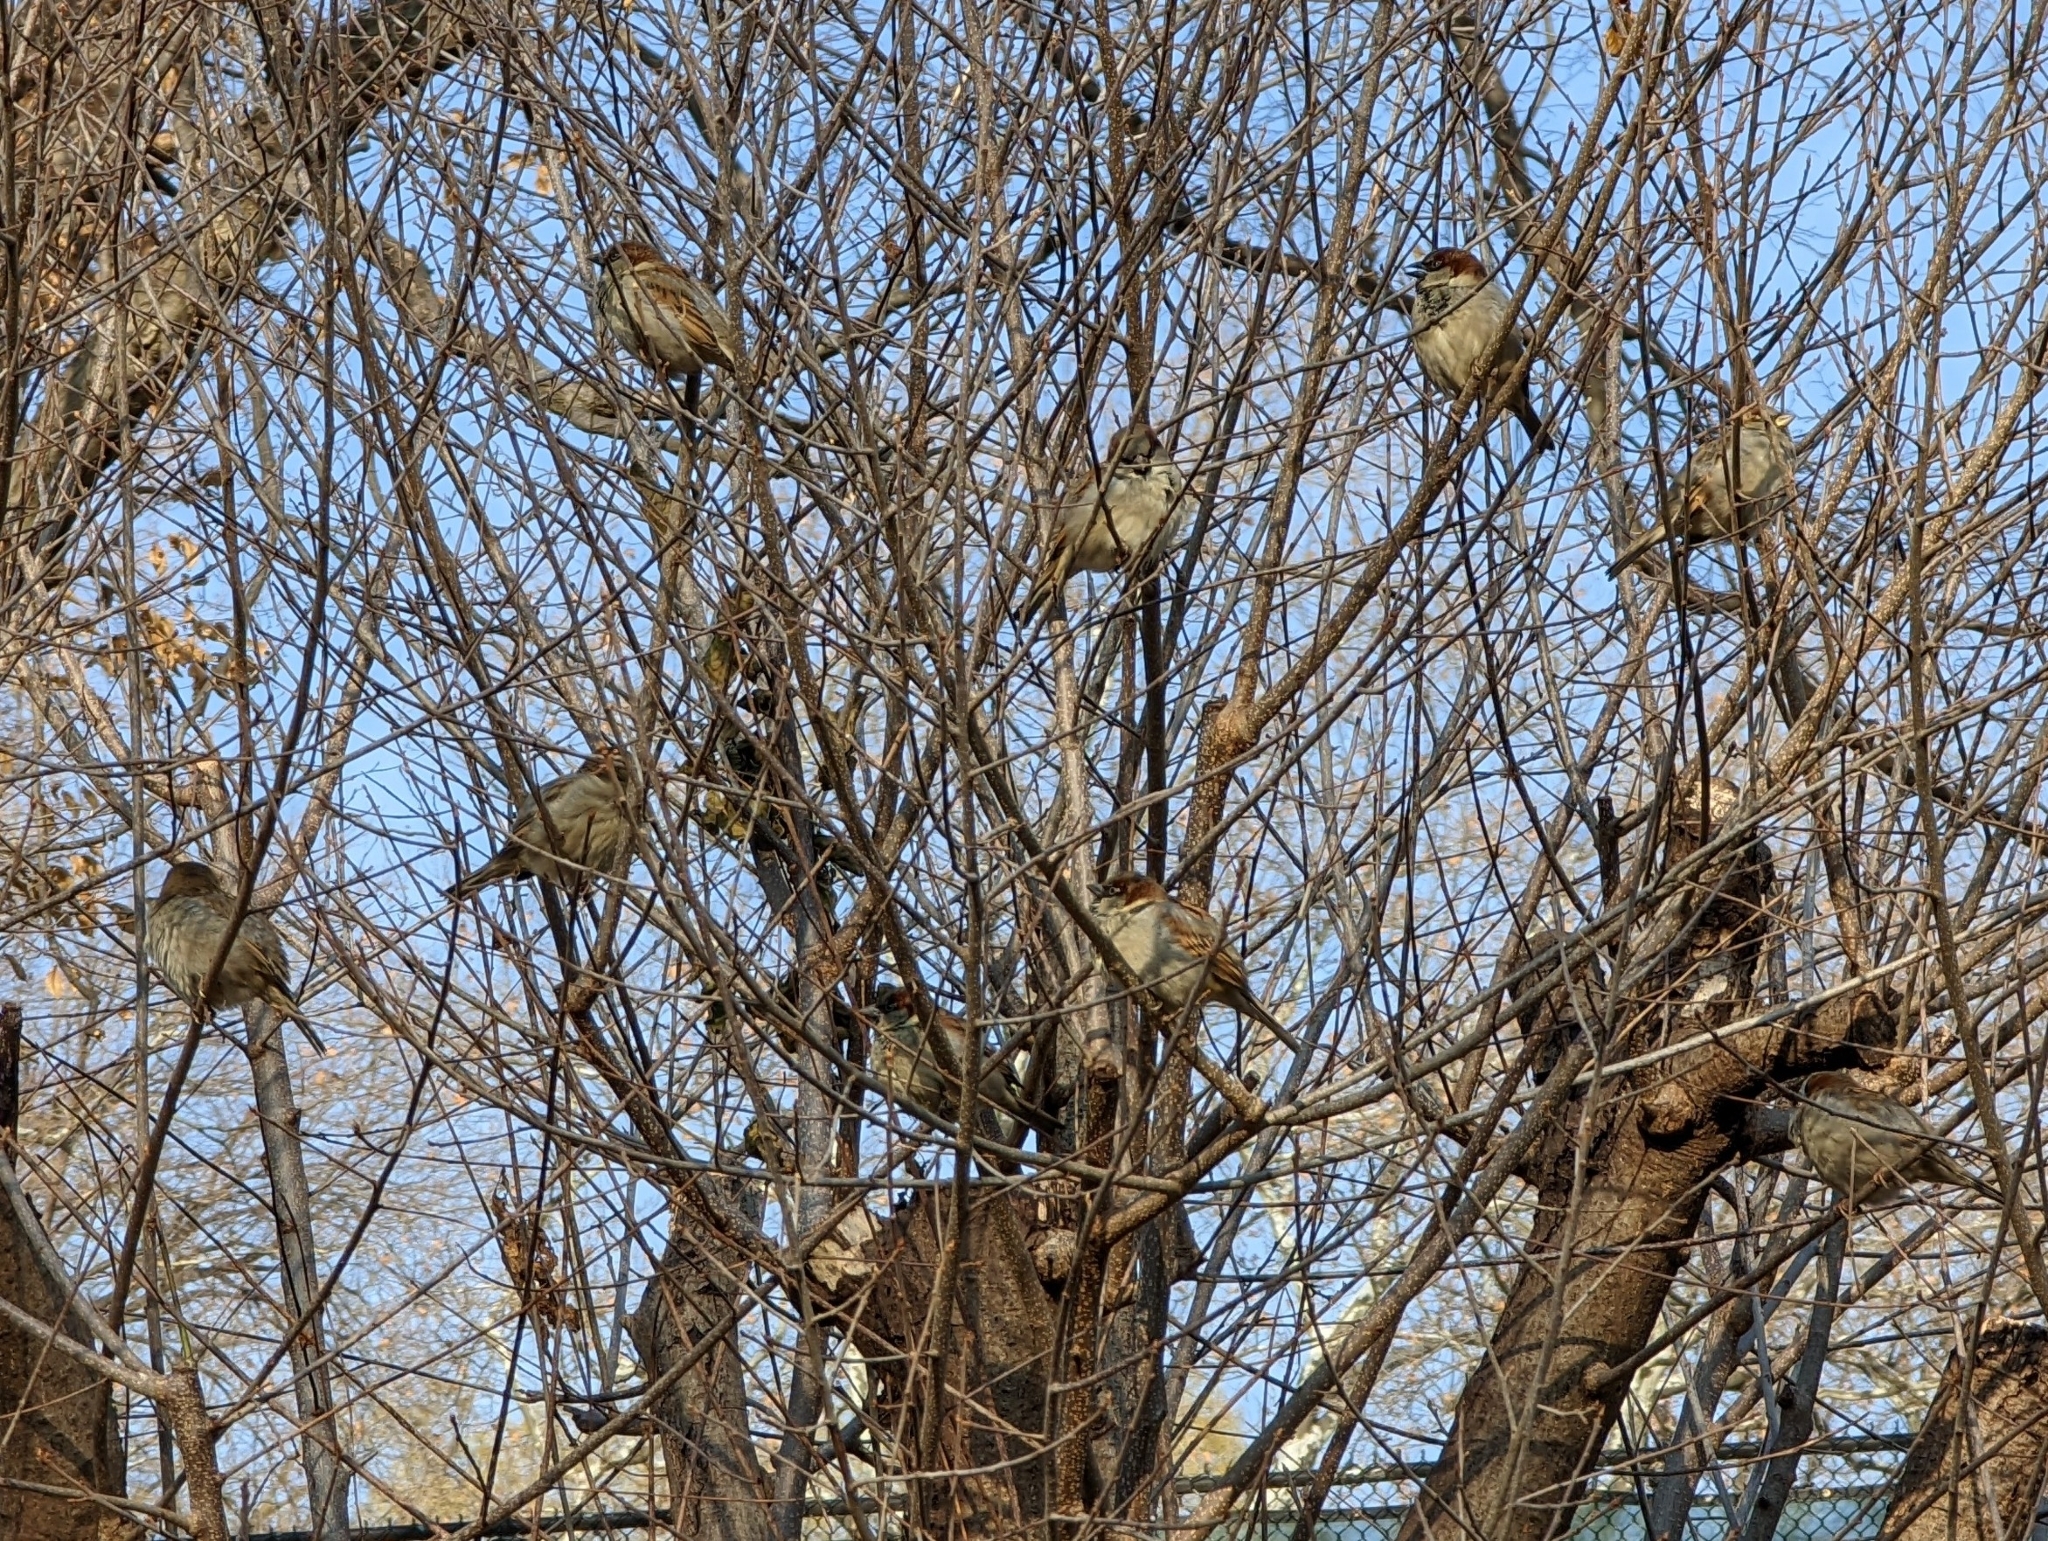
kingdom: Animalia
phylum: Chordata
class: Aves
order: Passeriformes
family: Passeridae
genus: Passer
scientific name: Passer domesticus
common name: House sparrow
